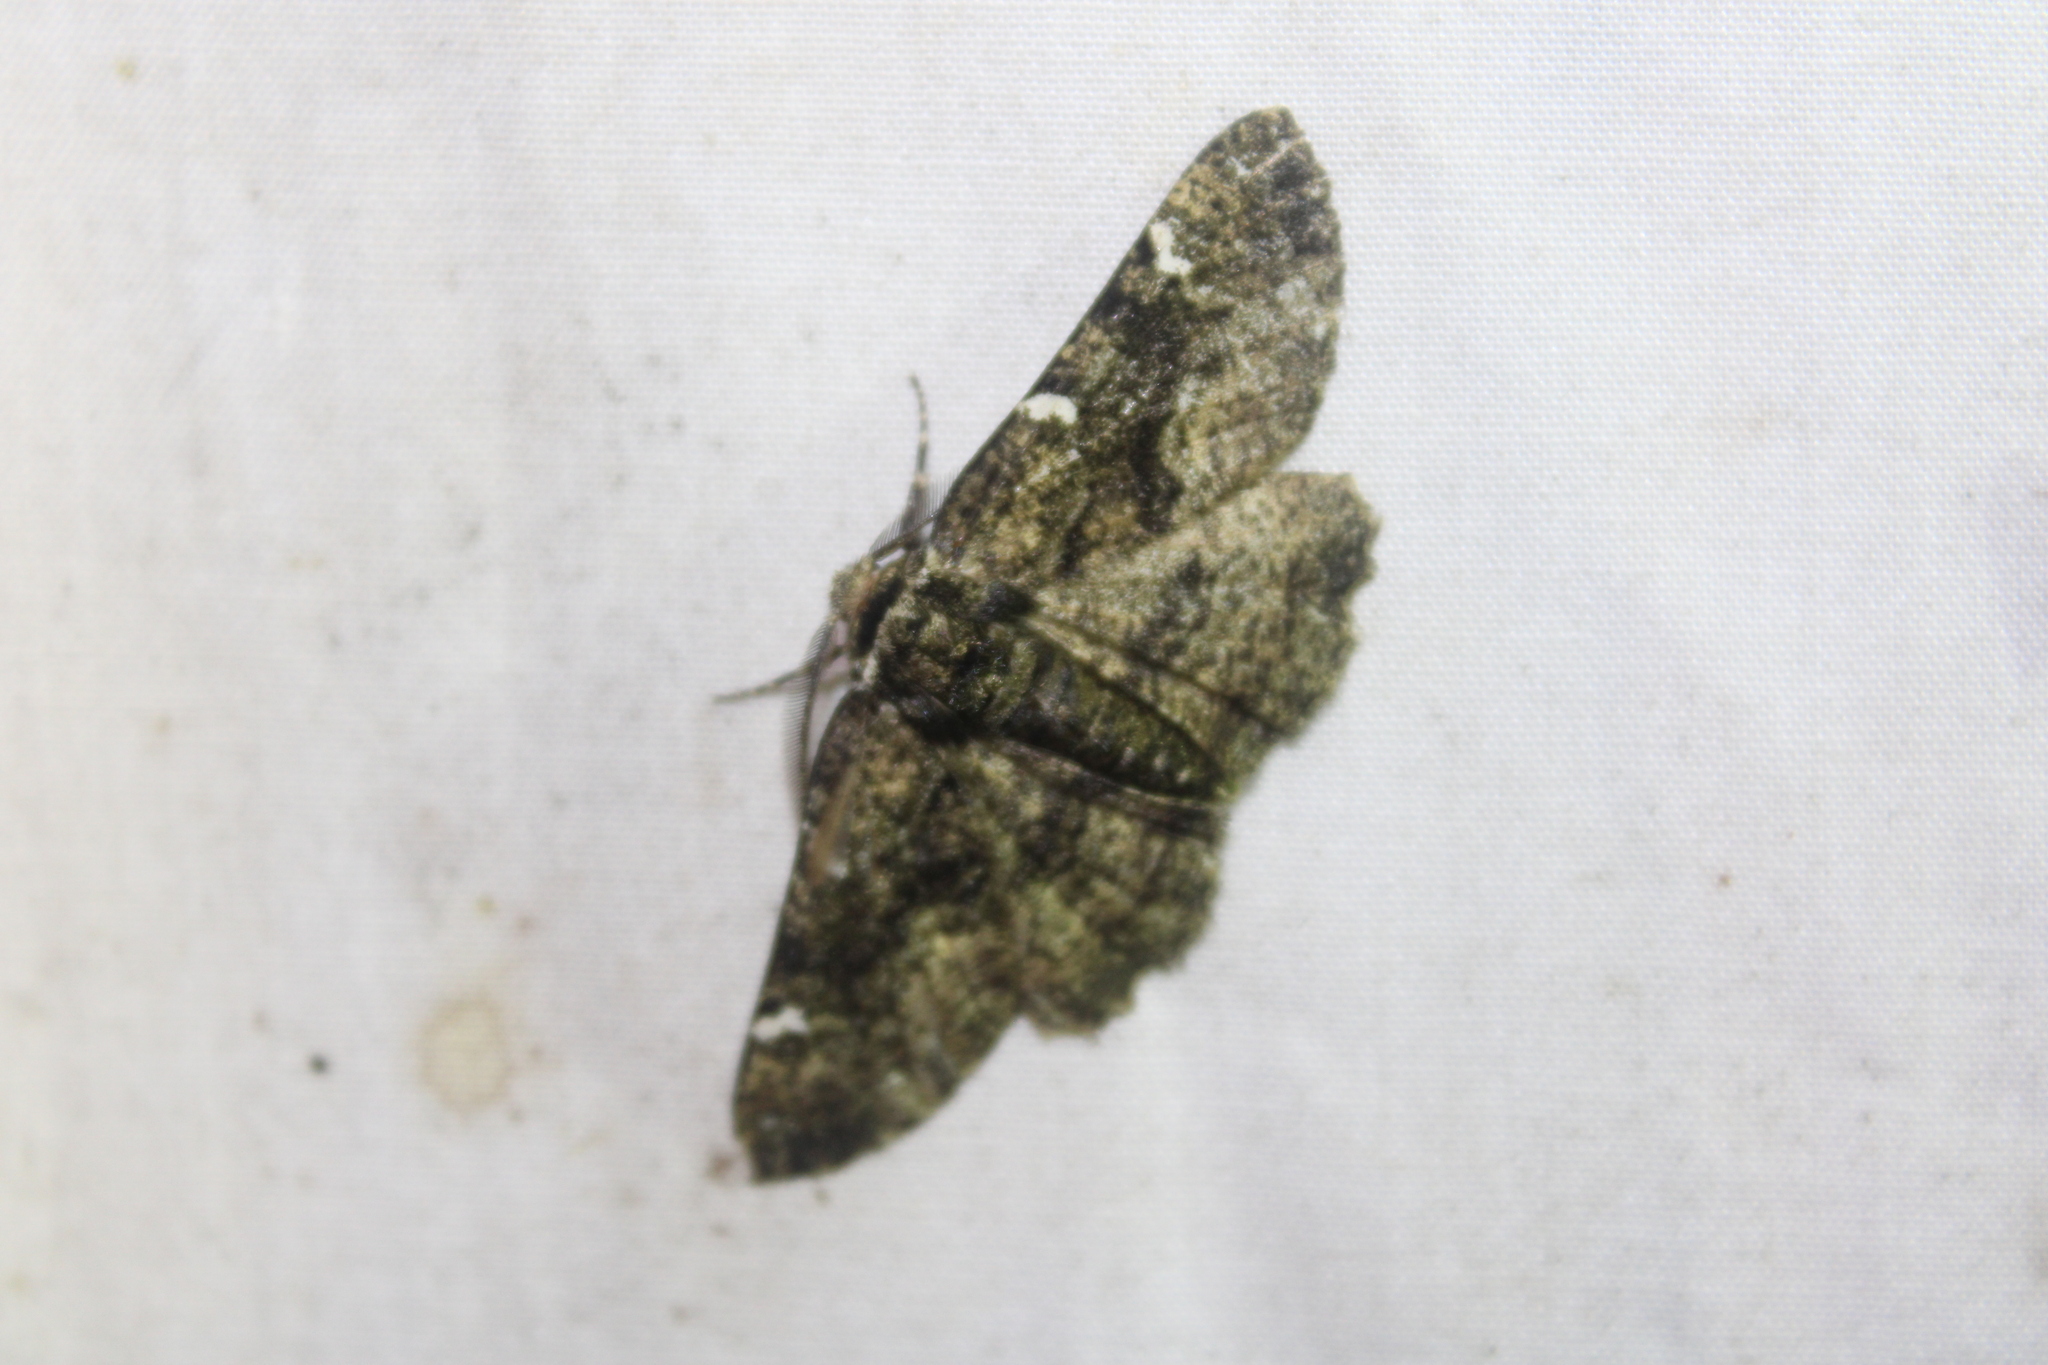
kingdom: Animalia
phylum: Arthropoda
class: Insecta
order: Lepidoptera
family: Geometridae
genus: Phaeoura
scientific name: Phaeoura quernaria
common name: Oak beauty
